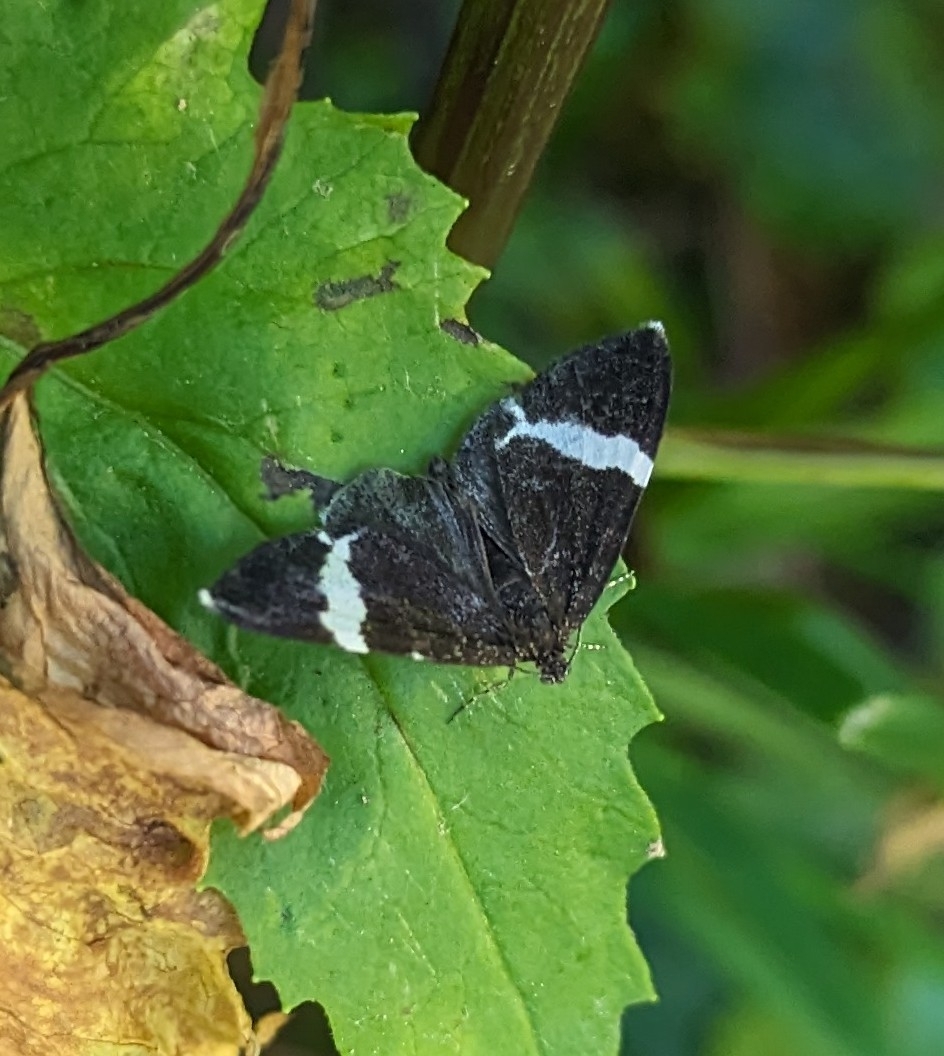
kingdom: Animalia
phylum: Arthropoda
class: Insecta
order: Lepidoptera
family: Geometridae
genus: Trichodezia
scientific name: Trichodezia albovittata
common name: White striped black
